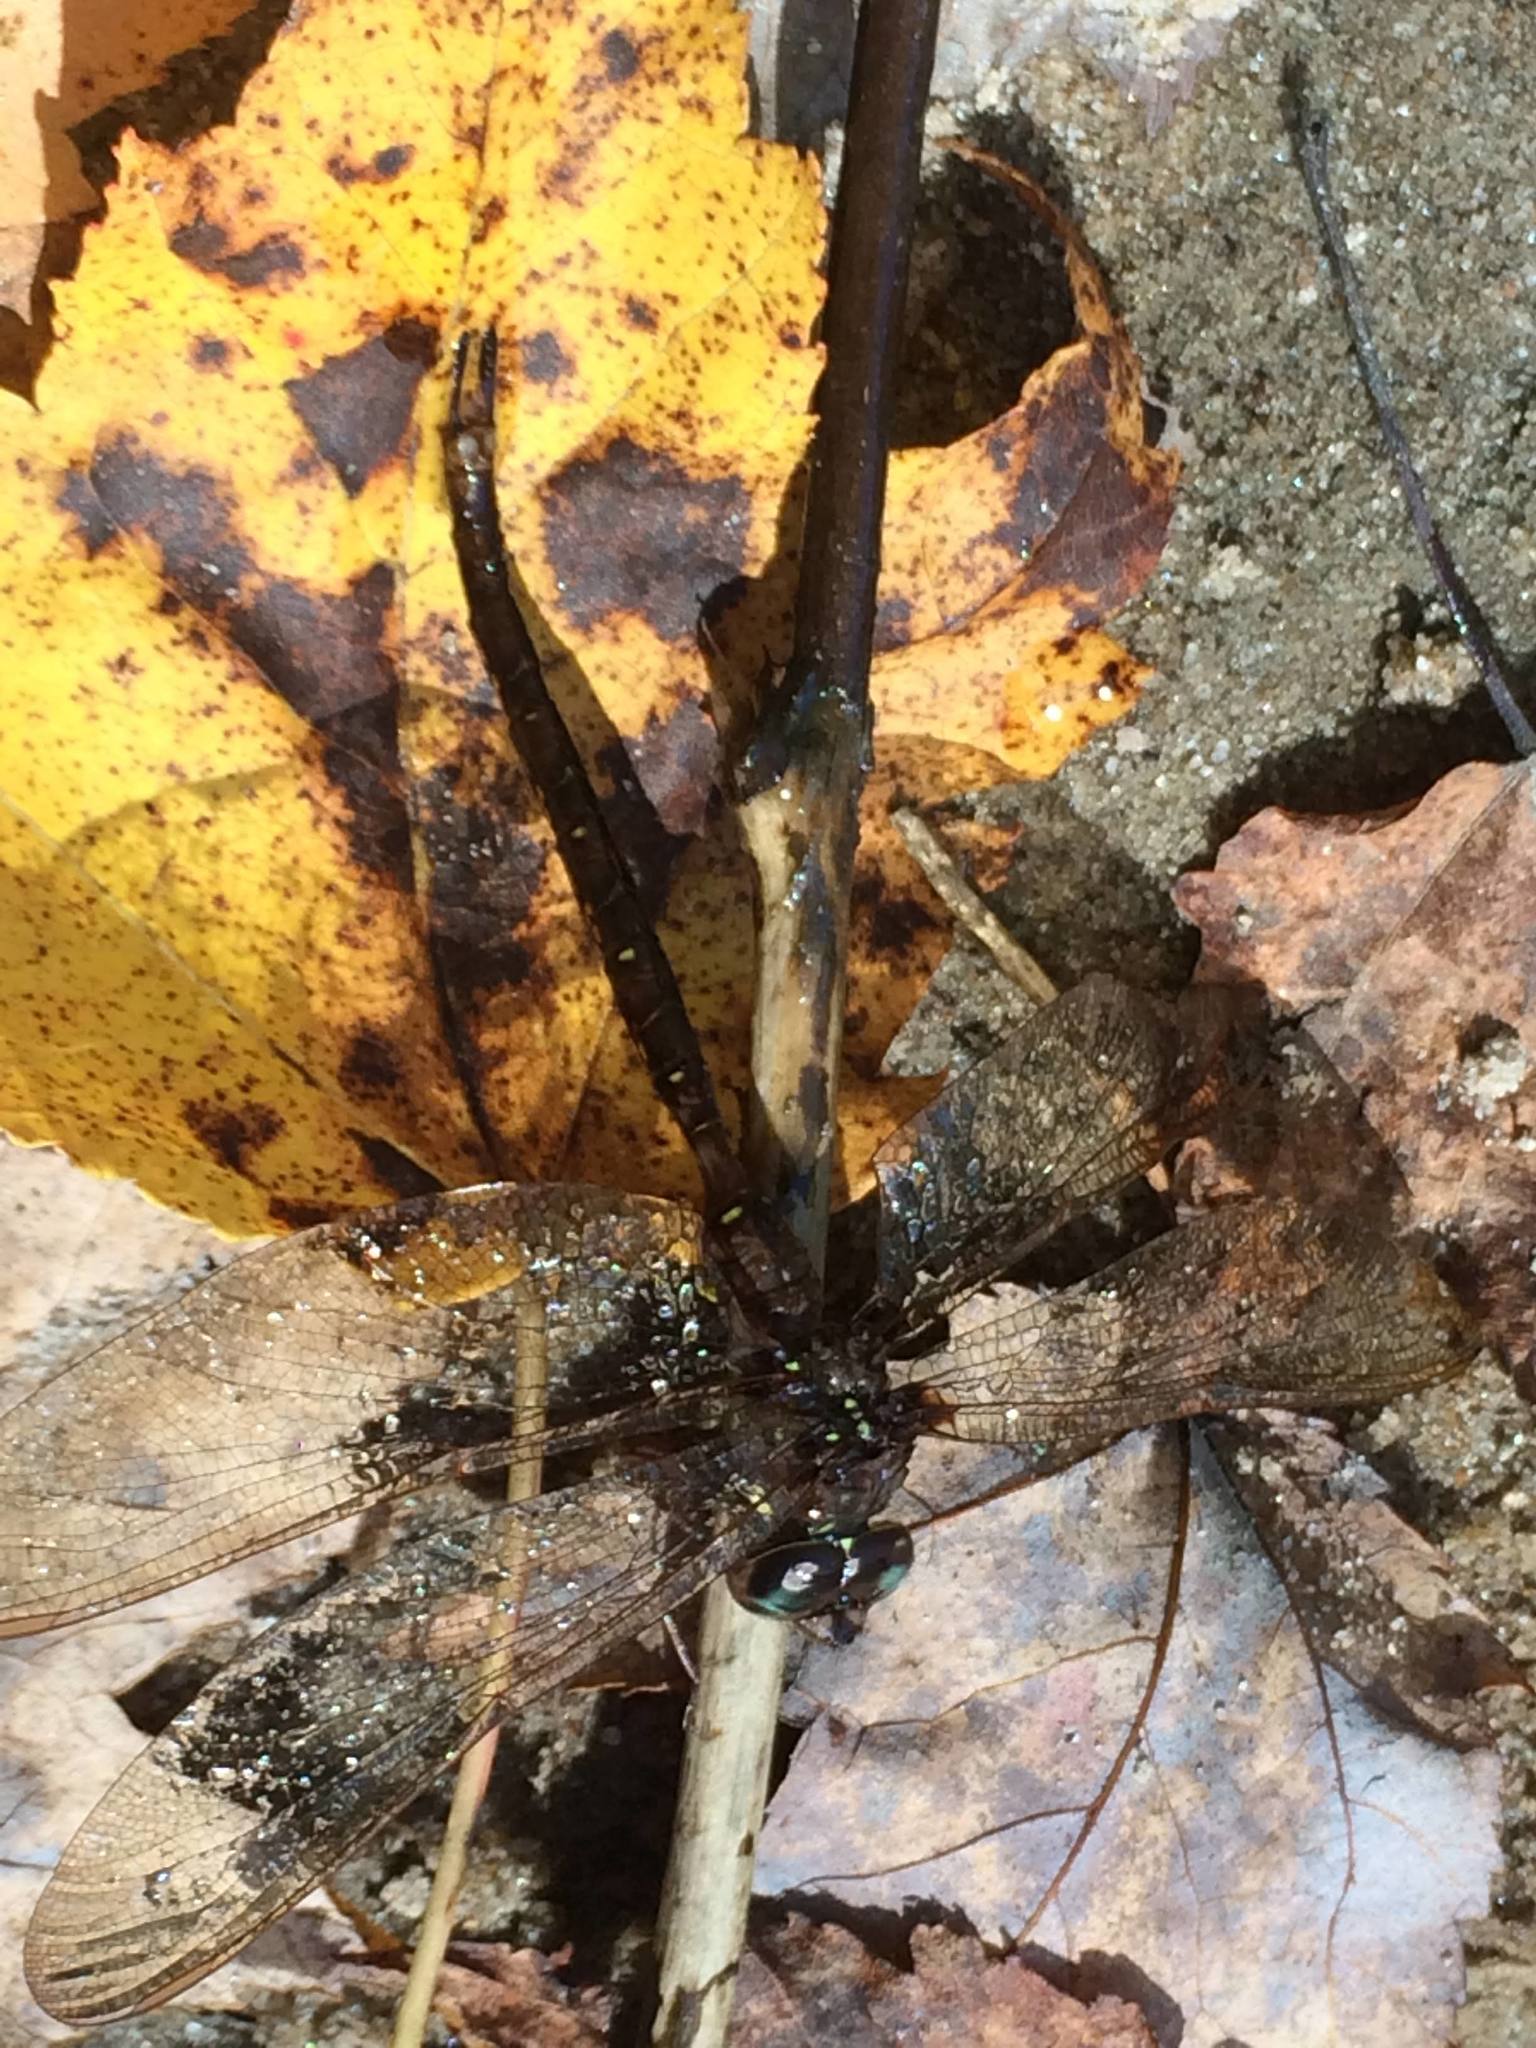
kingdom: Animalia
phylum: Arthropoda
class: Insecta
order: Odonata
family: Aeshnidae
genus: Boyeria
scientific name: Boyeria vinosa
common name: Fawn darner
